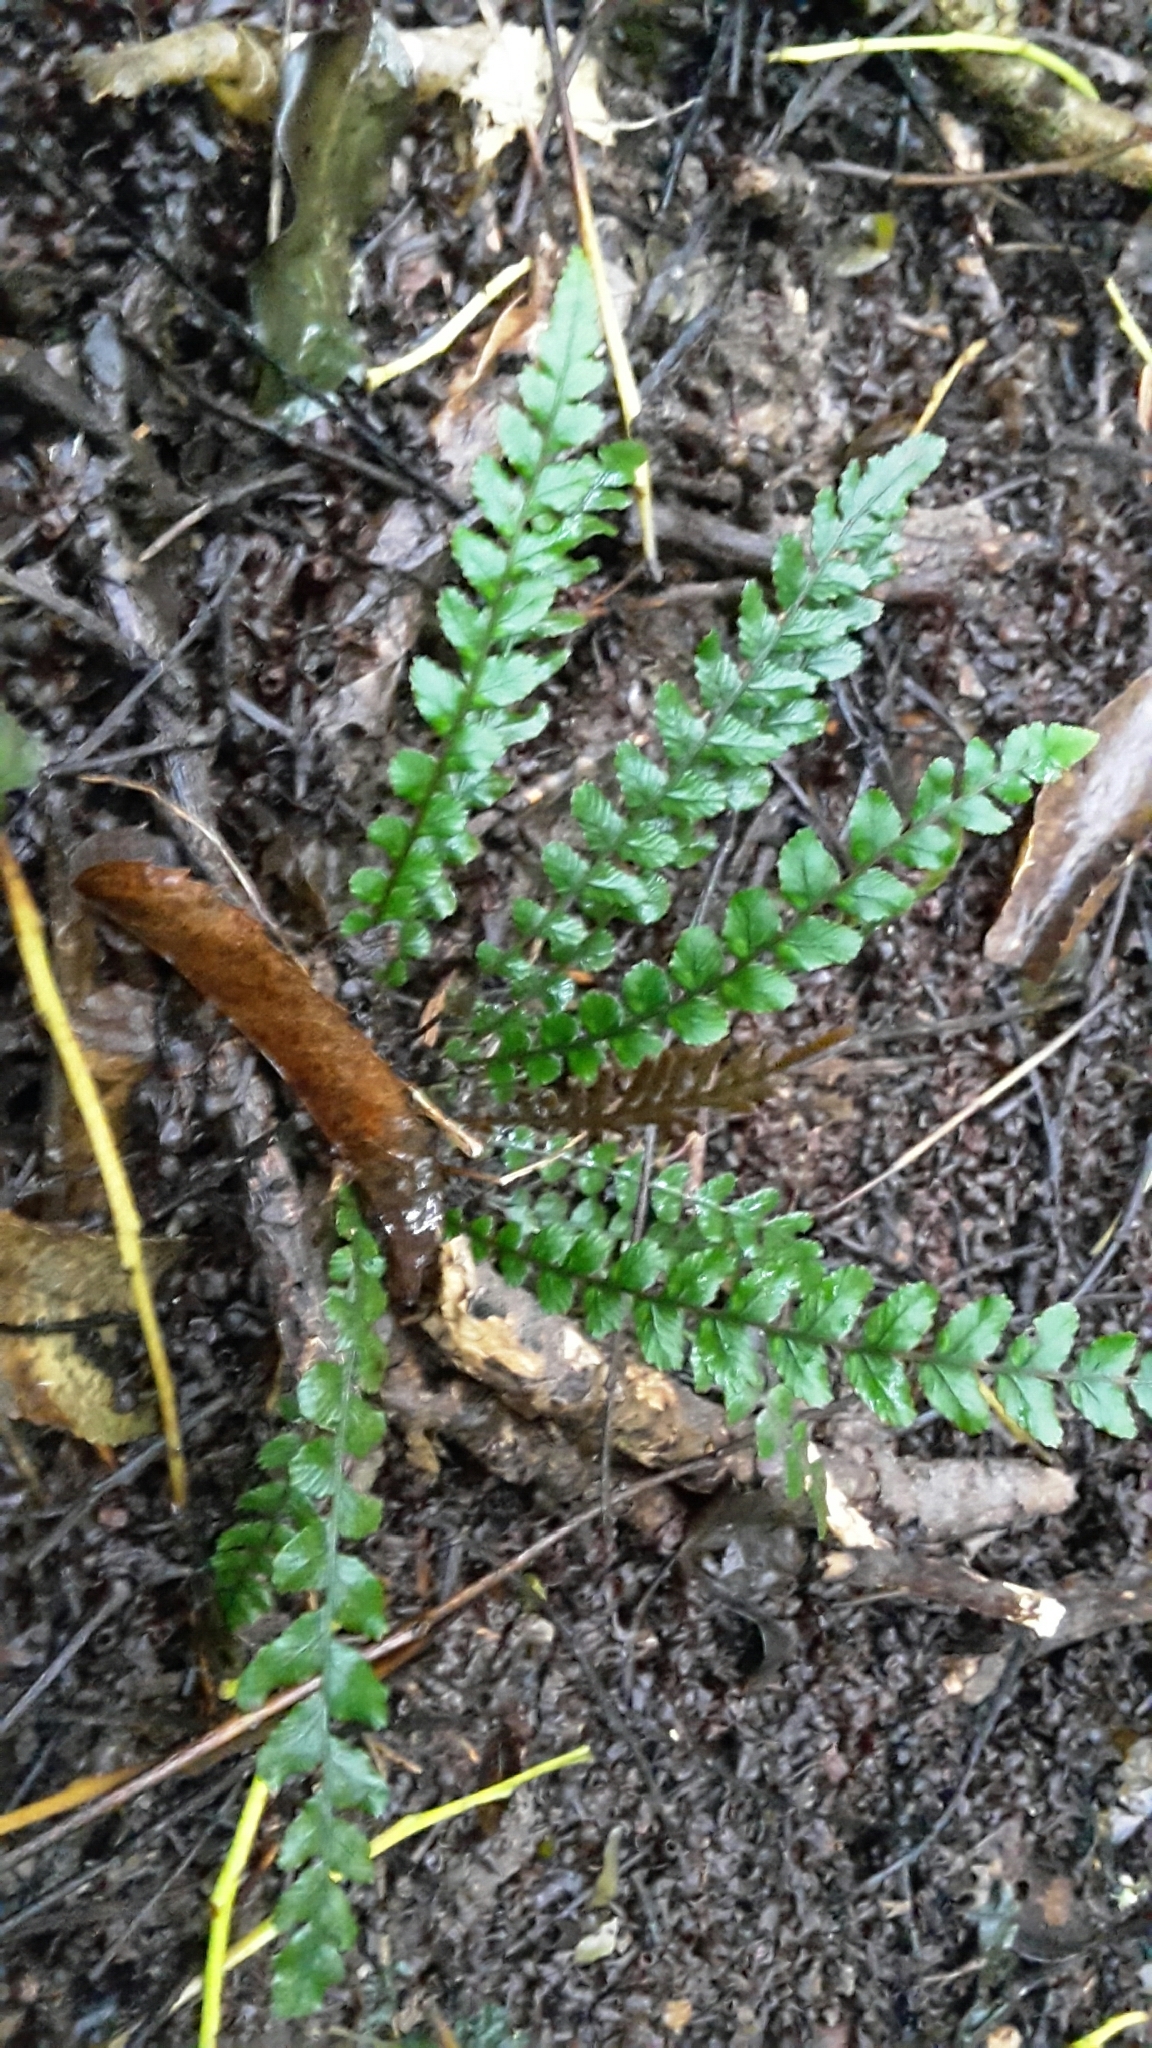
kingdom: Plantae
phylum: Tracheophyta
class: Polypodiopsida
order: Polypodiales
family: Blechnaceae
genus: Austroblechnum
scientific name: Austroblechnum membranaceum
